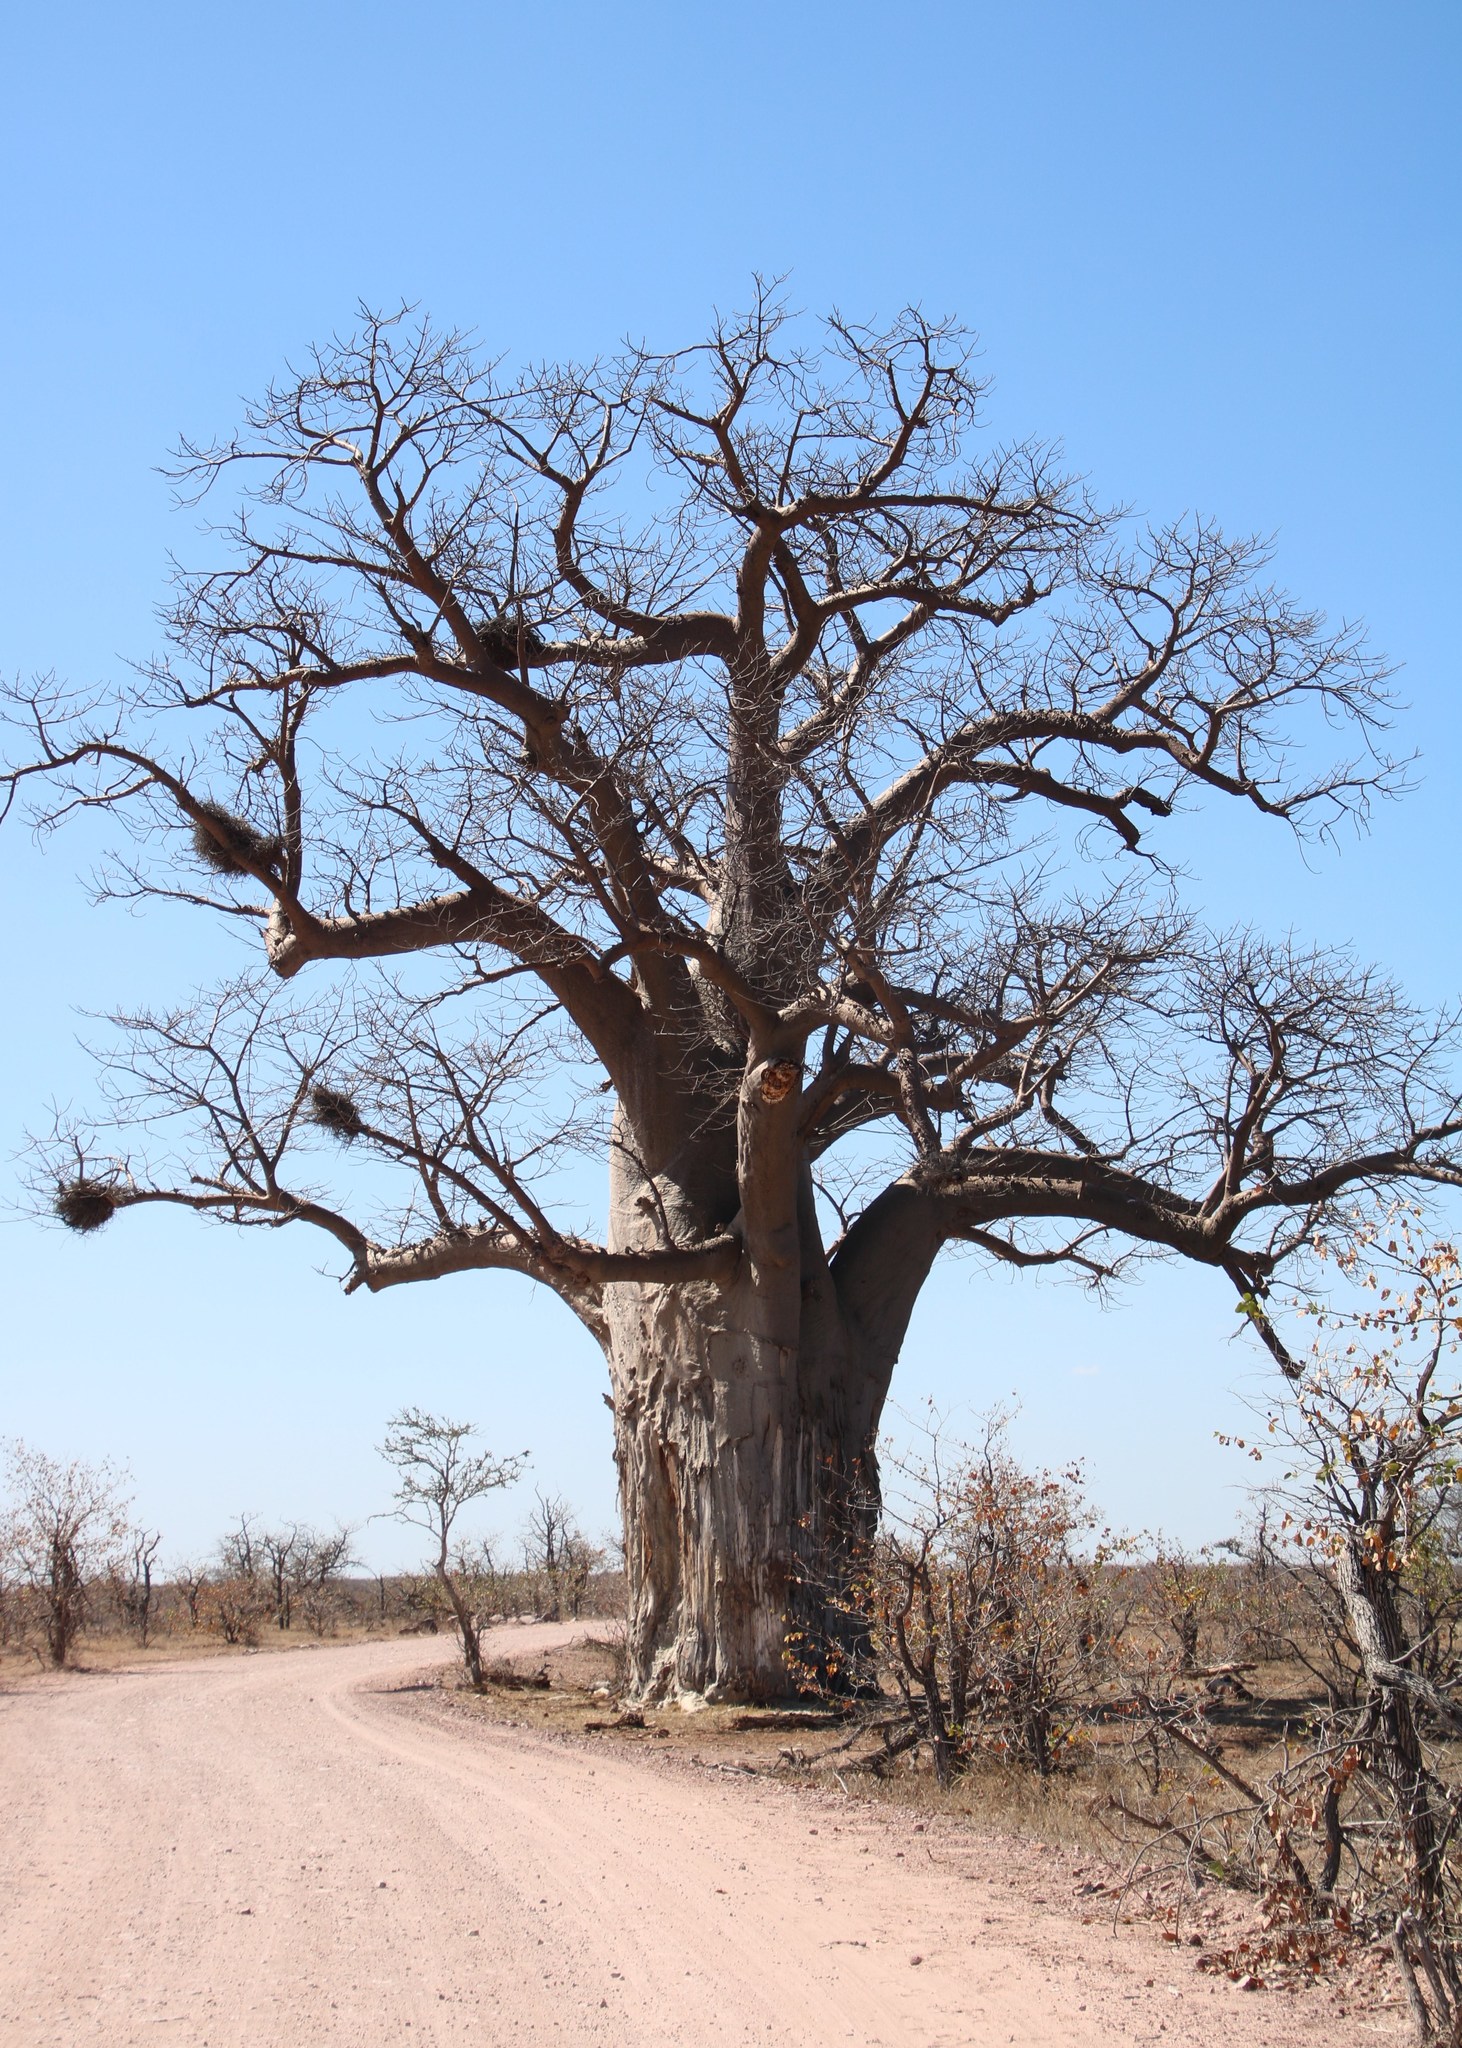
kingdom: Plantae
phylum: Tracheophyta
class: Magnoliopsida
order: Malvales
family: Malvaceae
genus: Adansonia
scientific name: Adansonia digitata
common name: Dead-rat-tree
